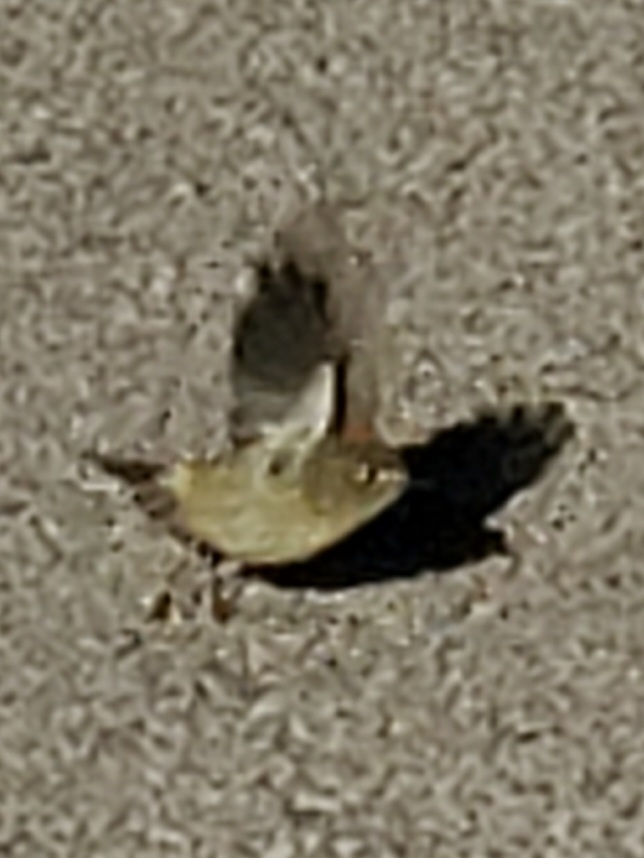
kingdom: Animalia
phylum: Chordata
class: Aves
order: Passeriformes
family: Regulidae
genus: Regulus
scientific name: Regulus calendula
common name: Ruby-crowned kinglet
